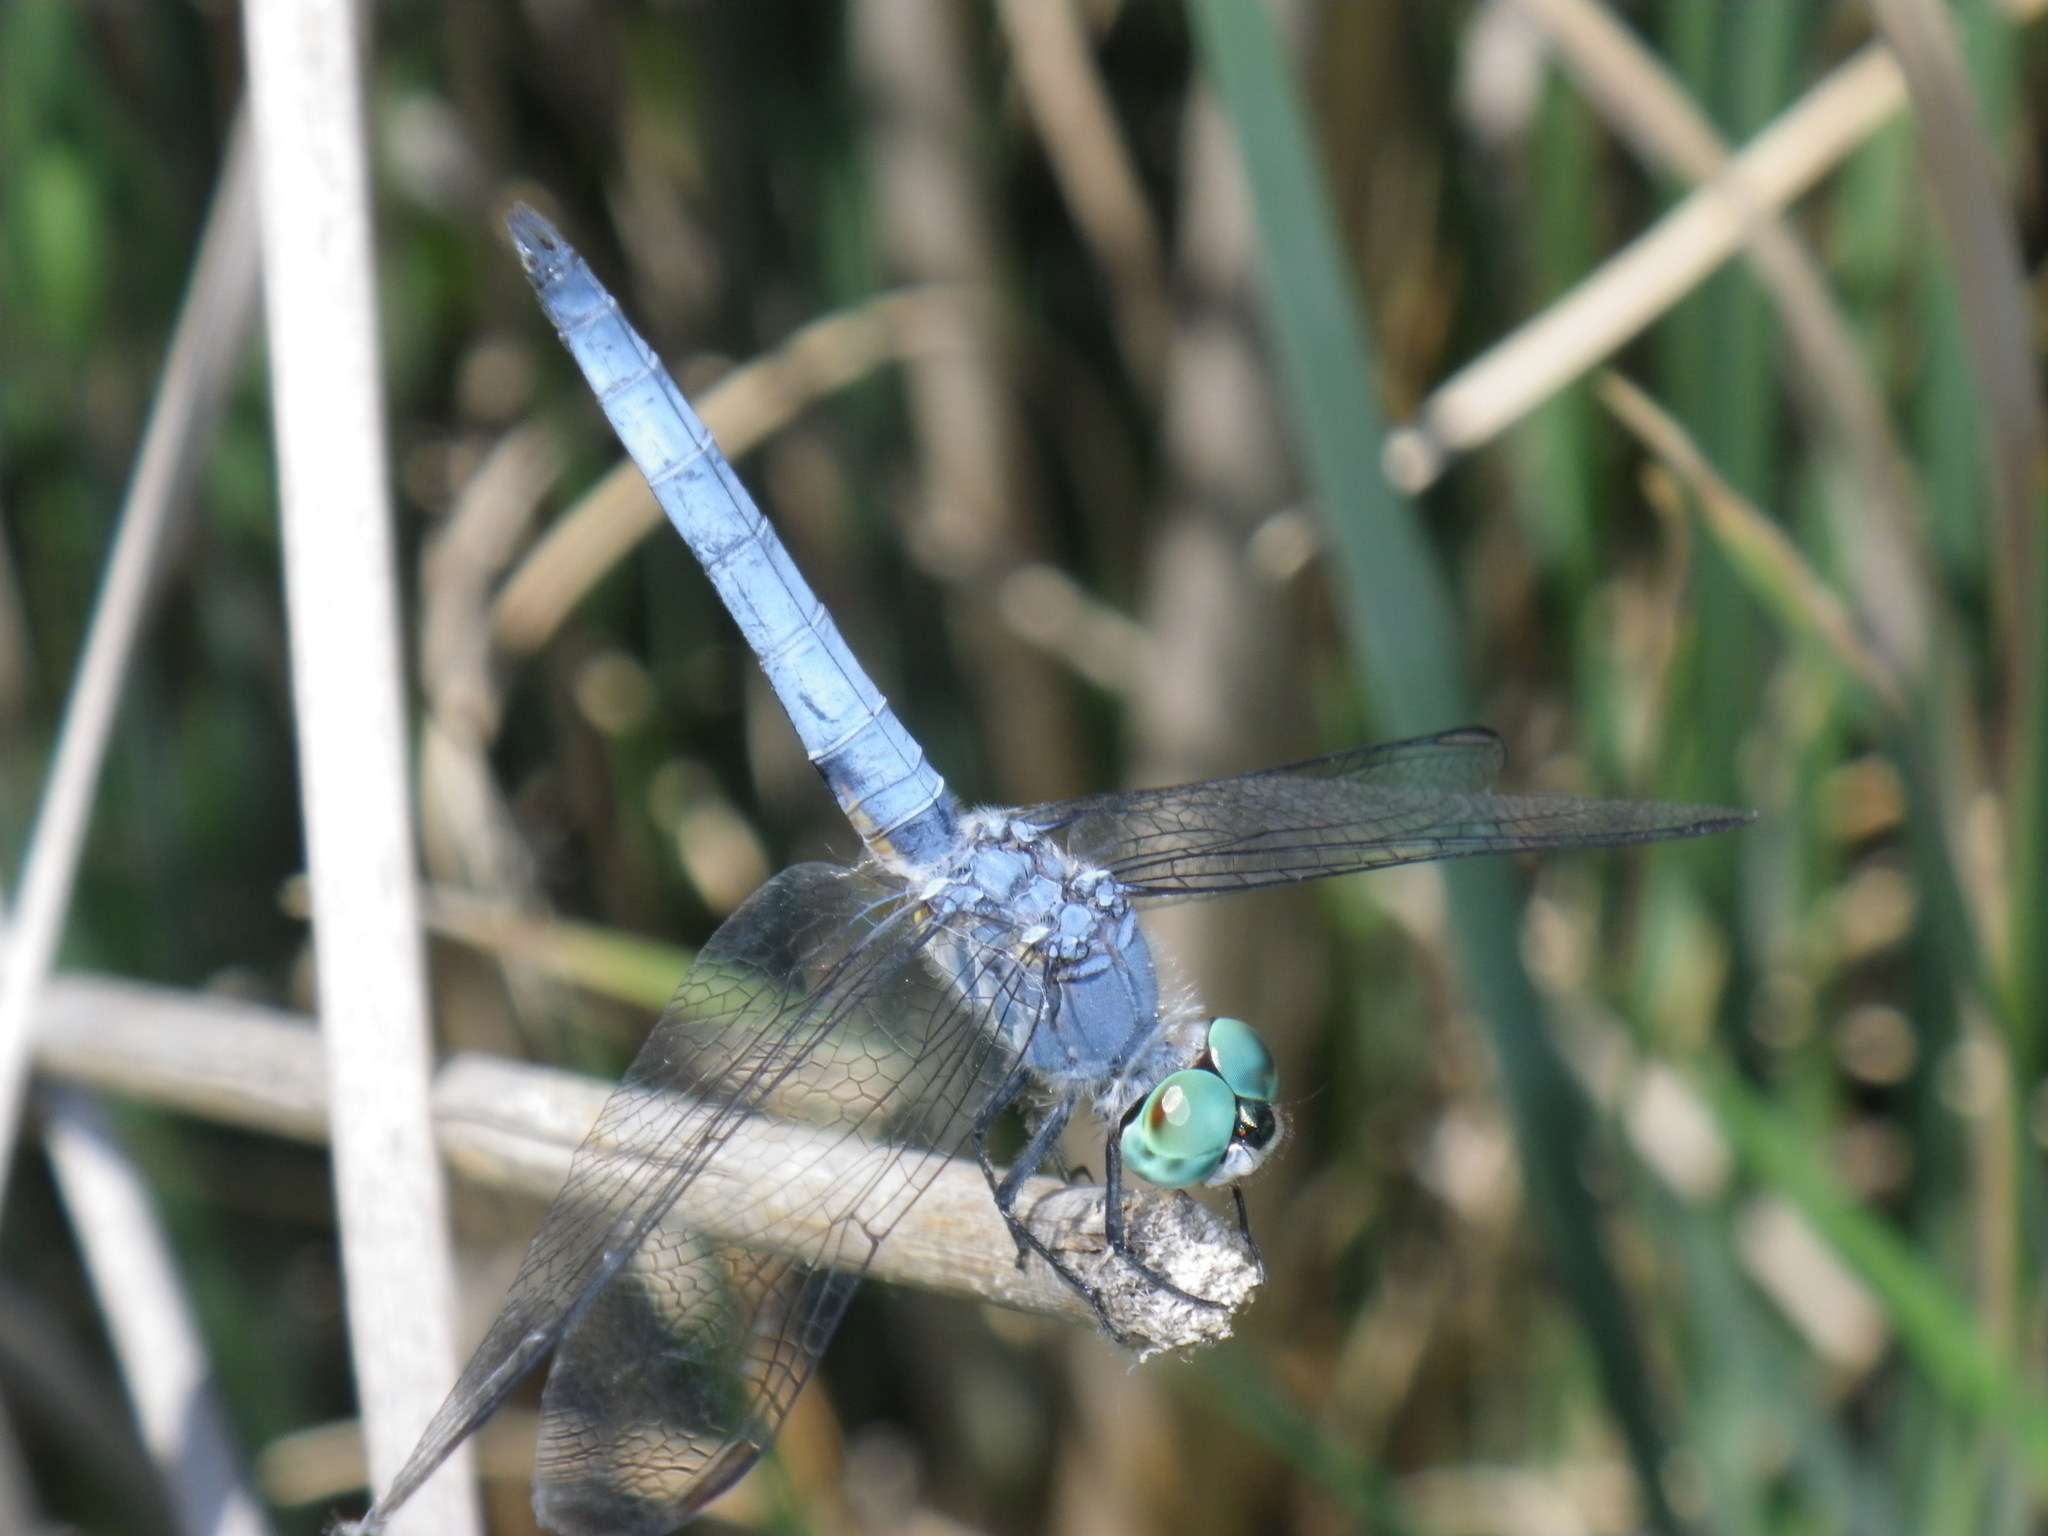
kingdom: Animalia
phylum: Arthropoda
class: Insecta
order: Odonata
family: Libellulidae
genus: Pachydiplax
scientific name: Pachydiplax longipennis
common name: Blue dasher
